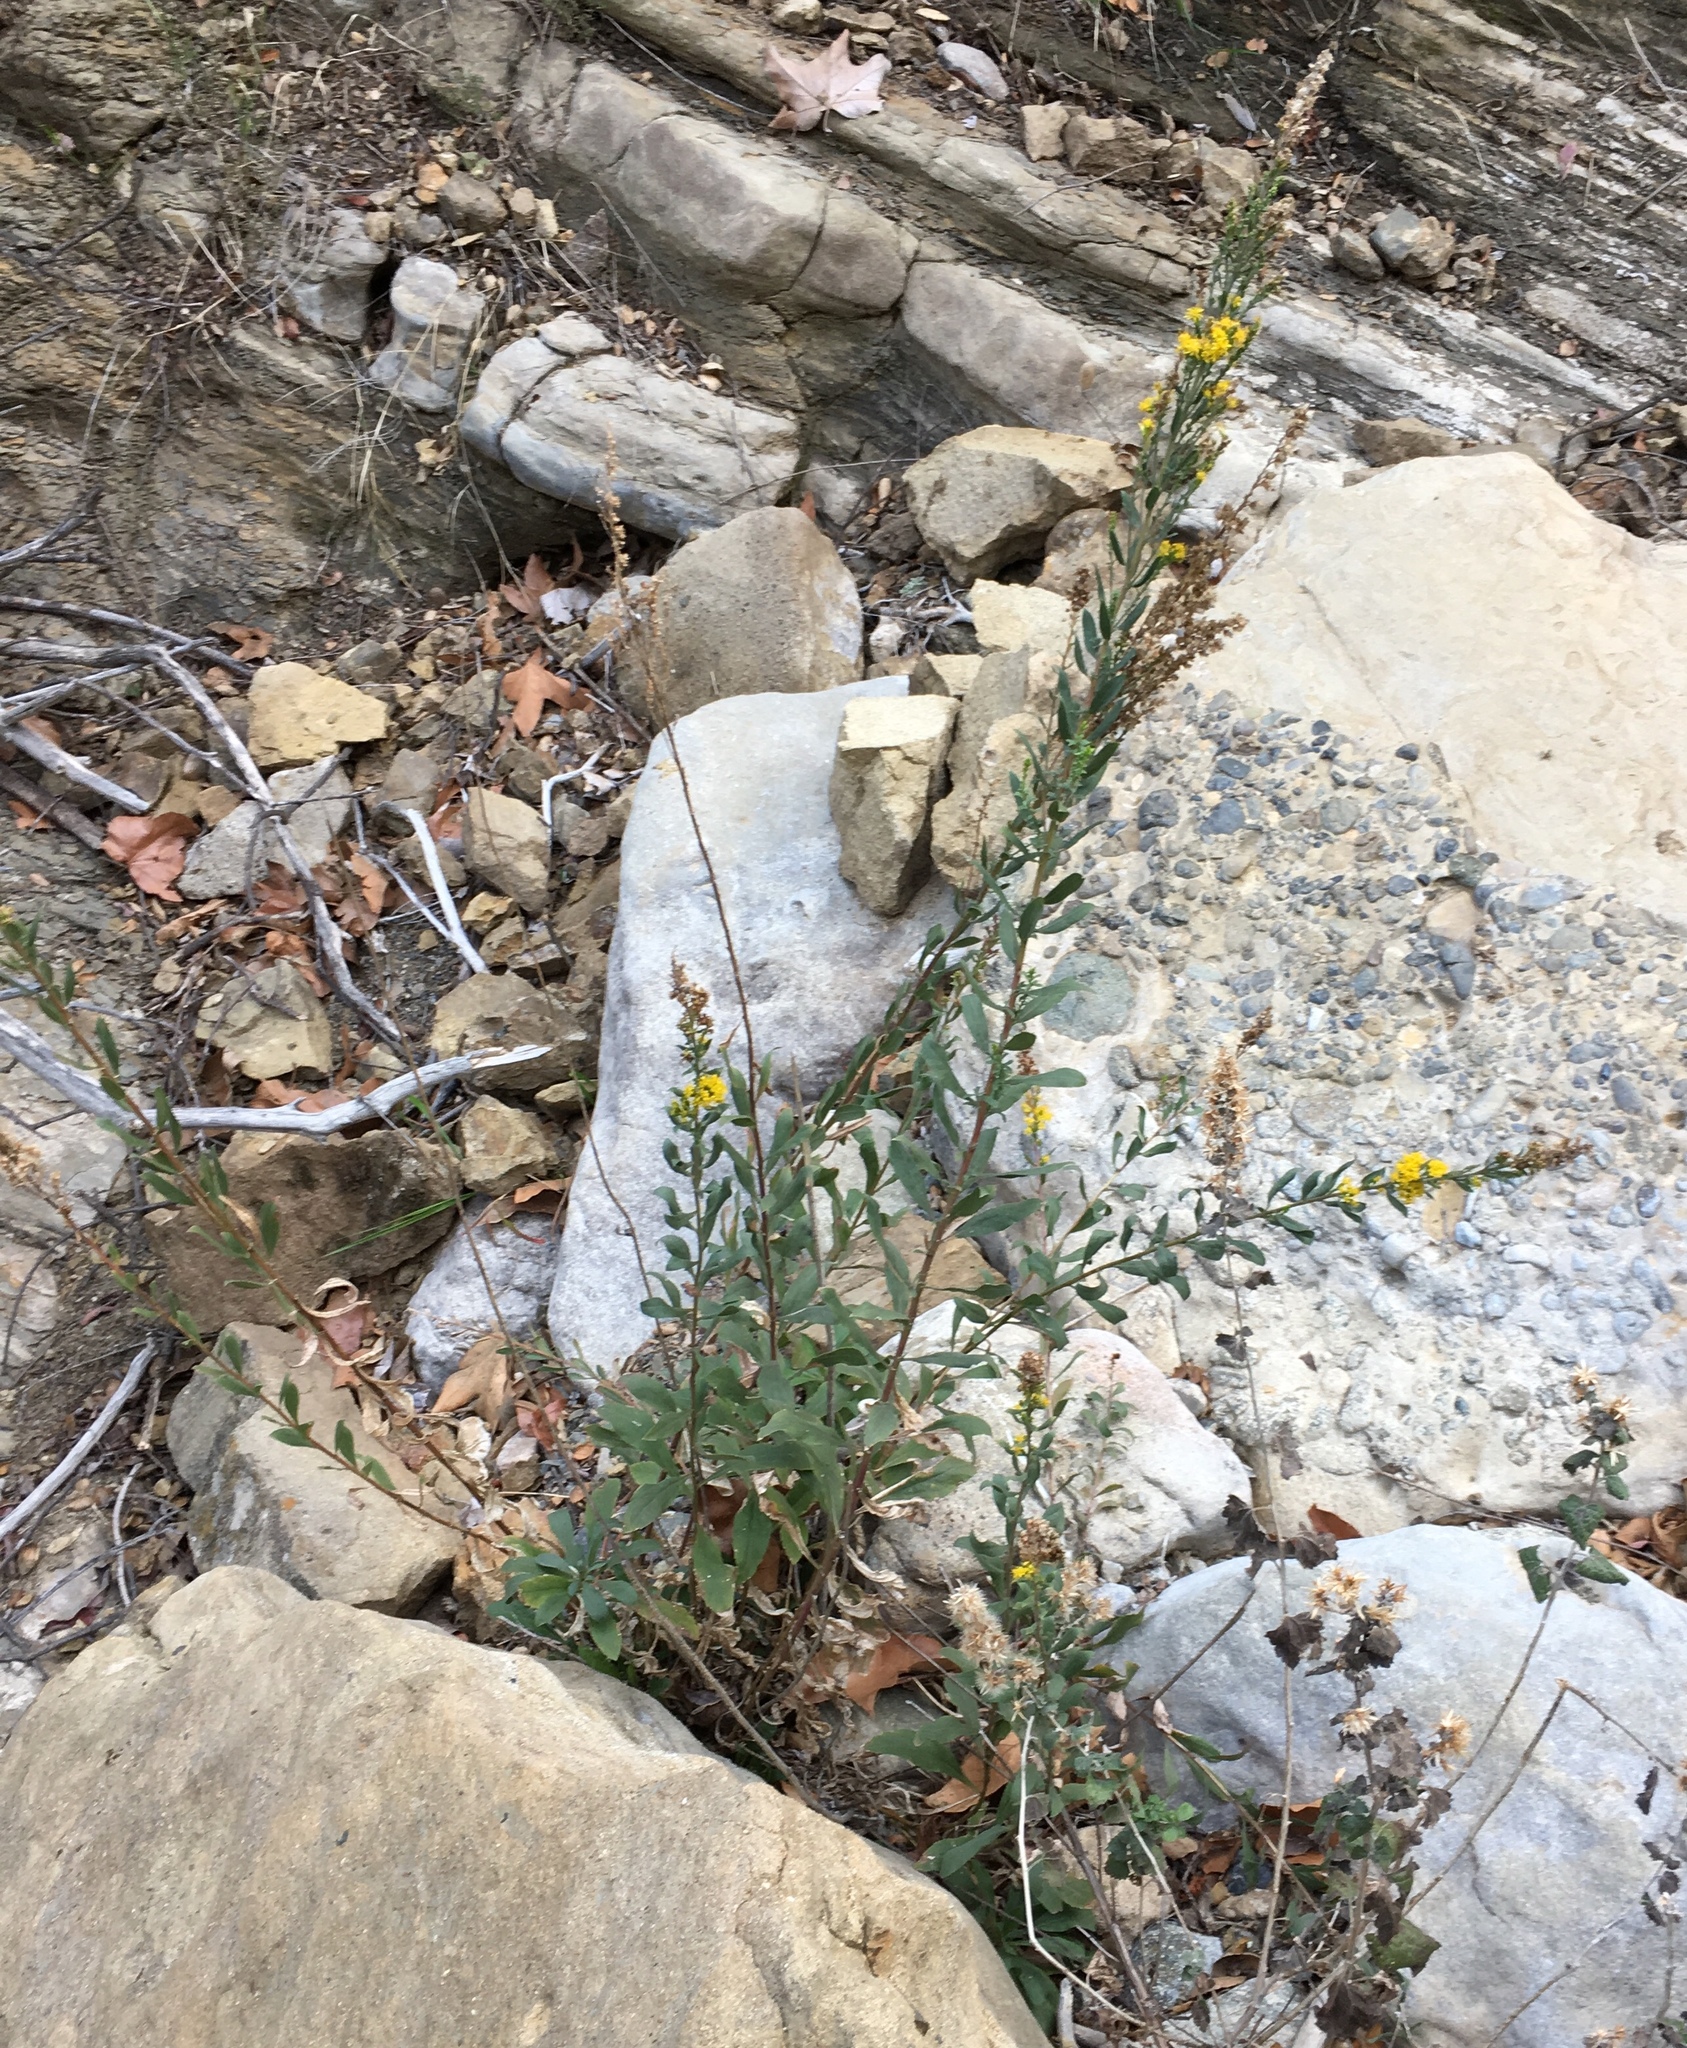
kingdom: Plantae
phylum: Tracheophyta
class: Magnoliopsida
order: Asterales
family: Asteraceae
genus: Solidago
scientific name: Solidago velutina
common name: Three-nerve goldenrod
